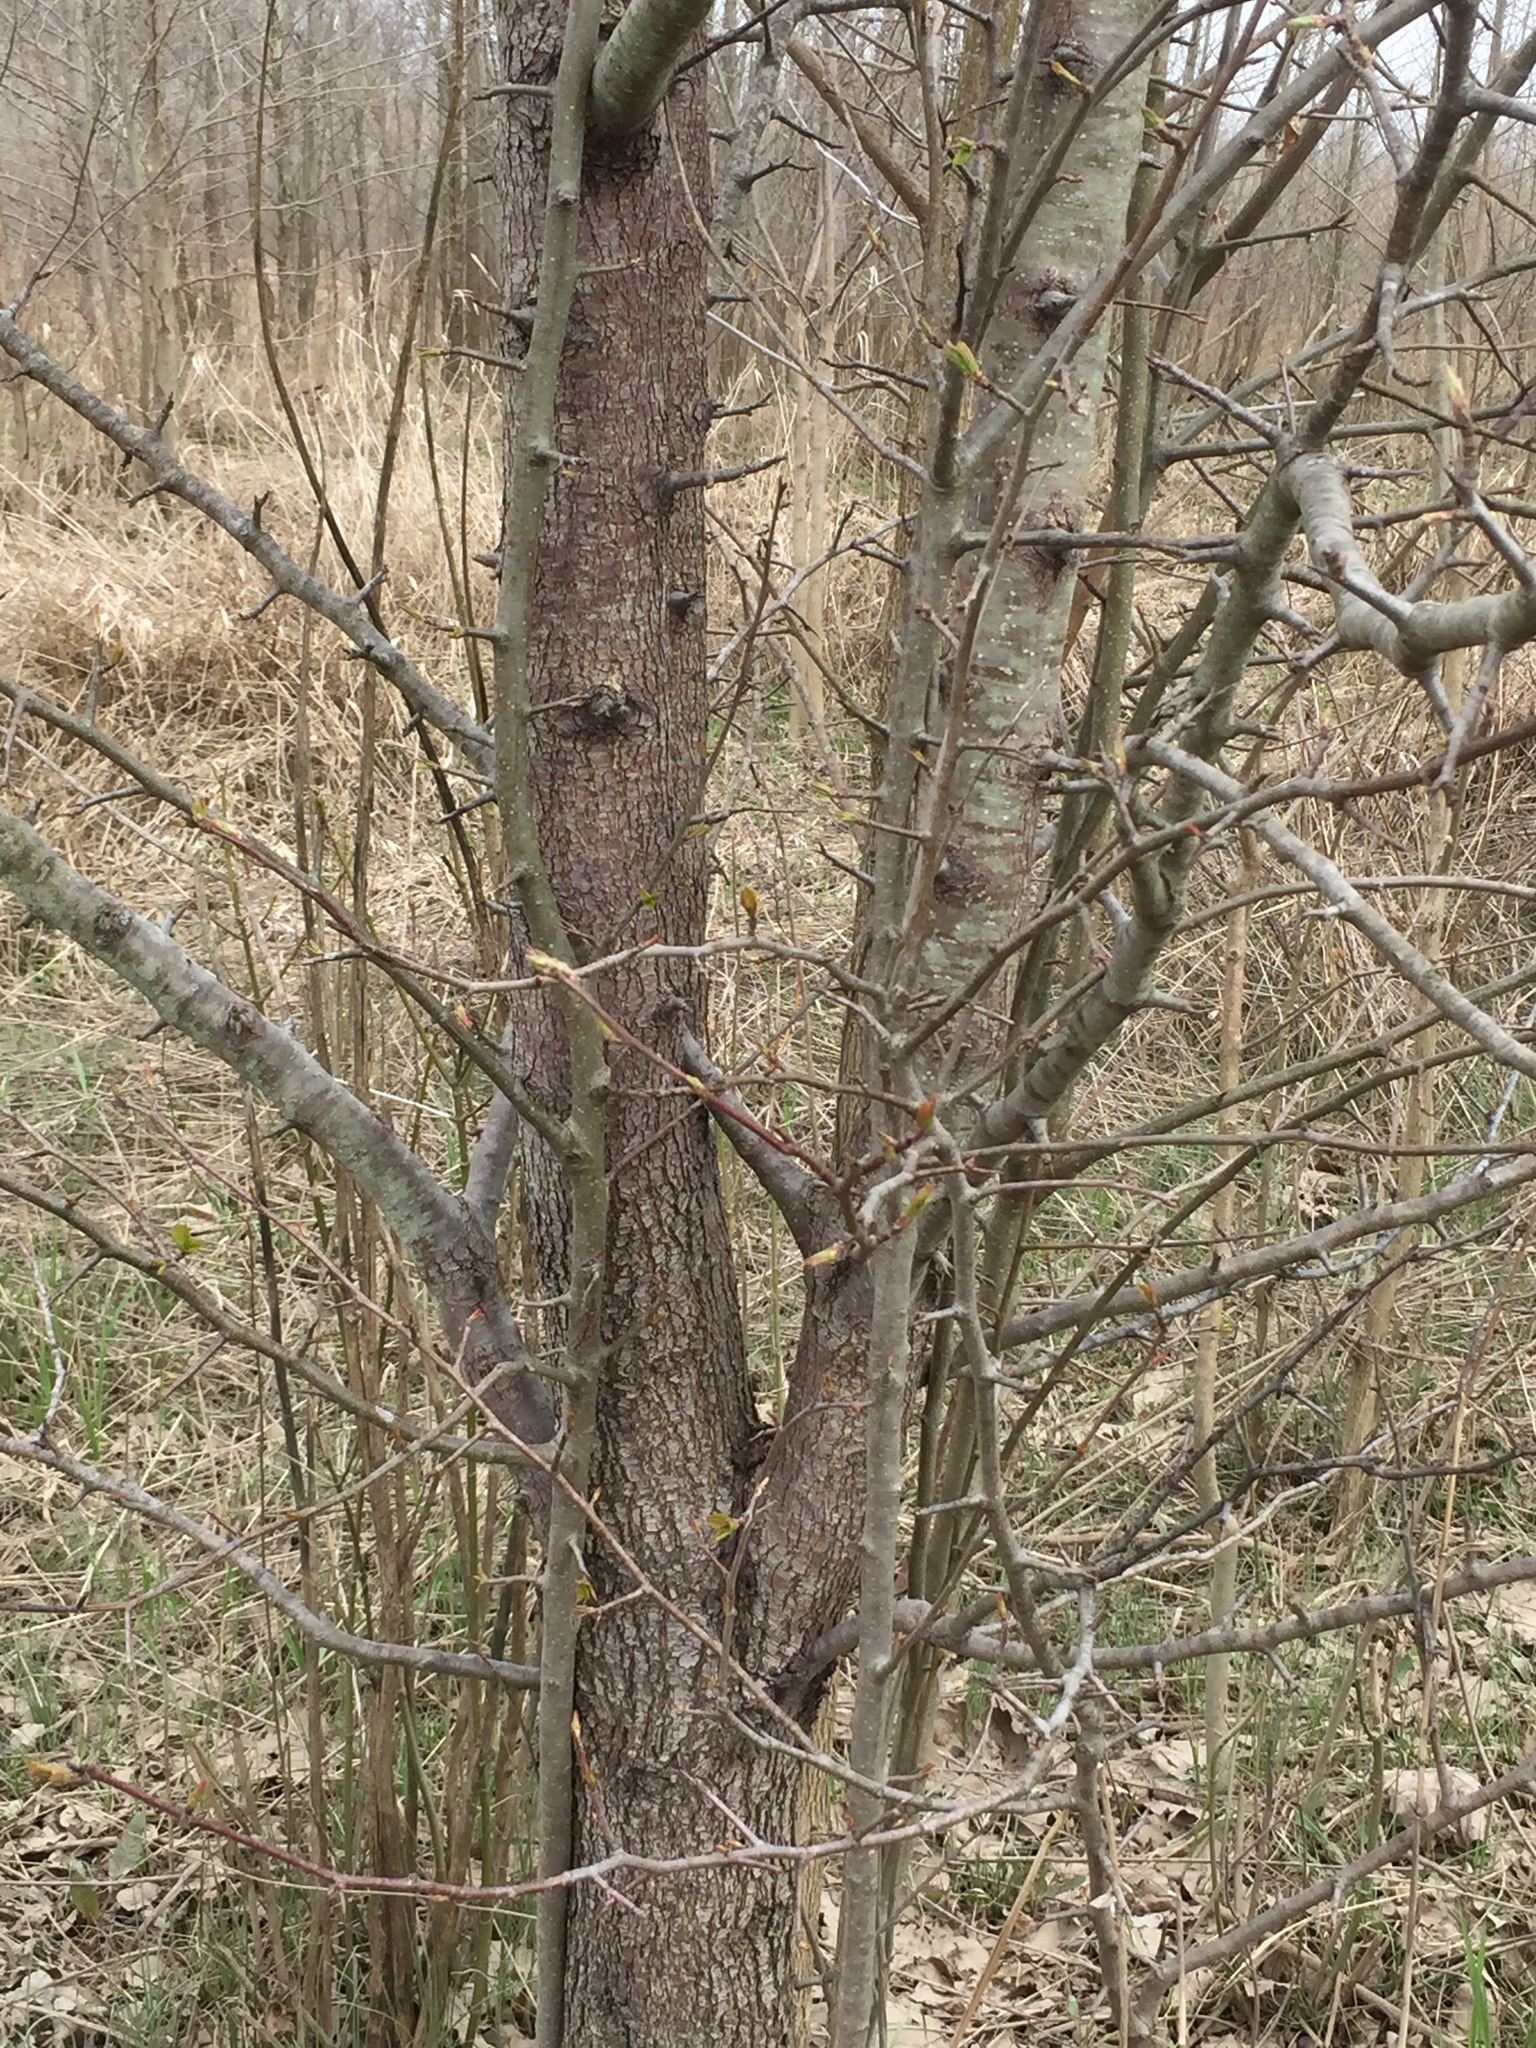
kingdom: Plantae
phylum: Tracheophyta
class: Magnoliopsida
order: Rosales
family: Rosaceae
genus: Pyrus
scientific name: Pyrus calleryana
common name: Callery pear
